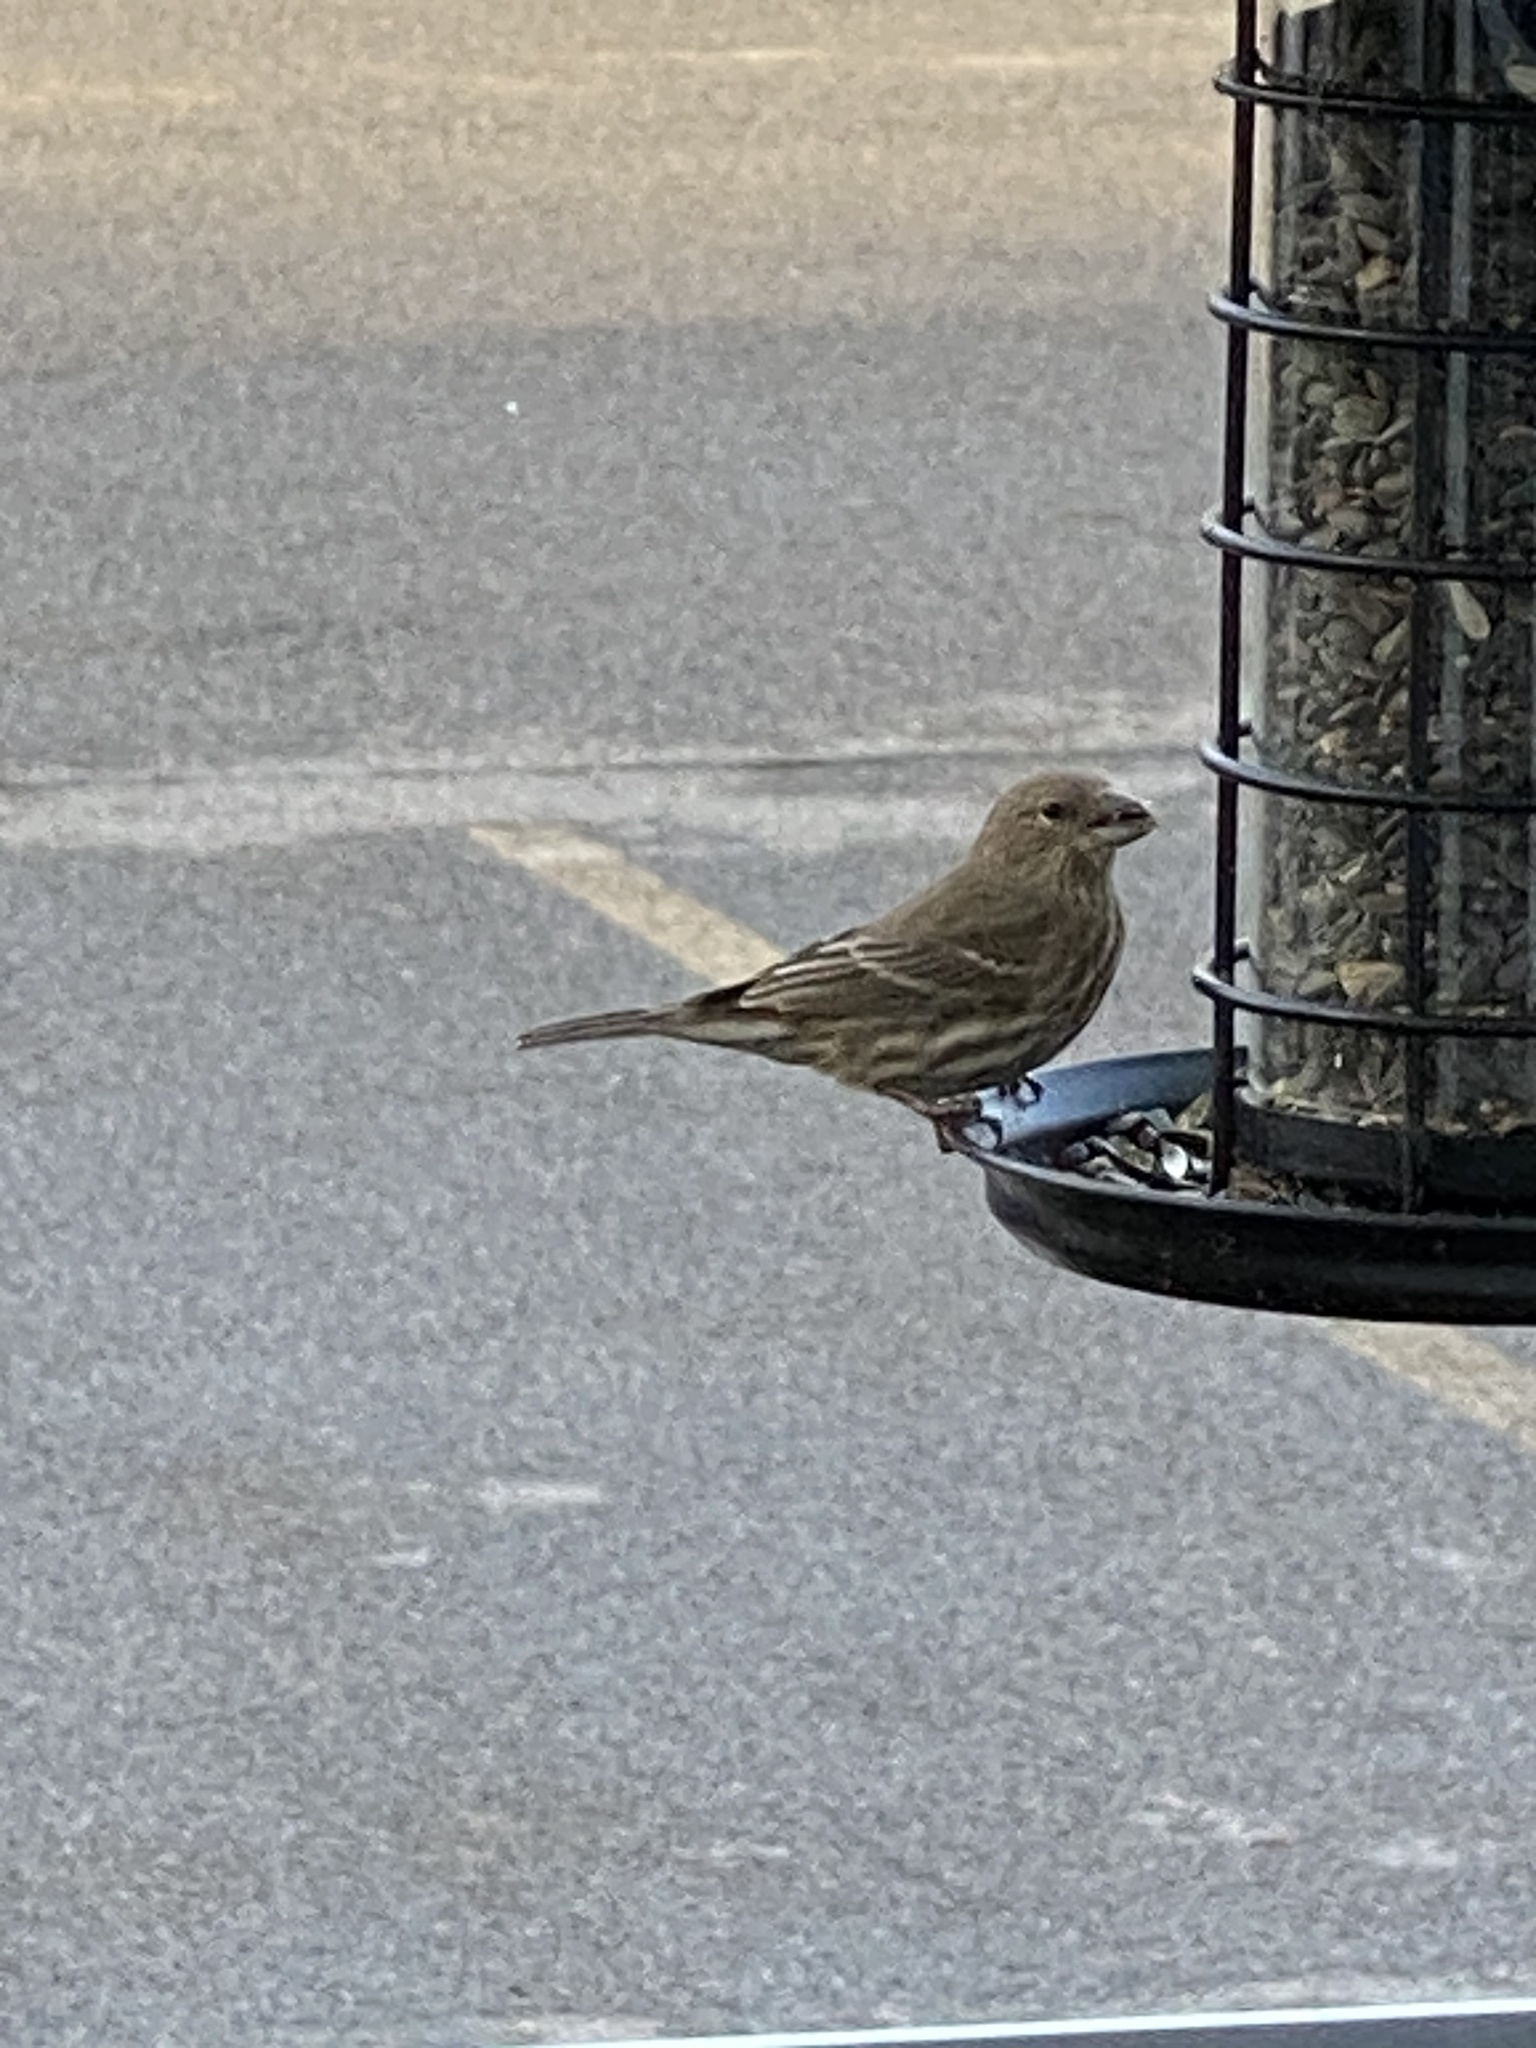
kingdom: Animalia
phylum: Chordata
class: Aves
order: Passeriformes
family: Fringillidae
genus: Haemorhous
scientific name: Haemorhous mexicanus
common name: House finch
